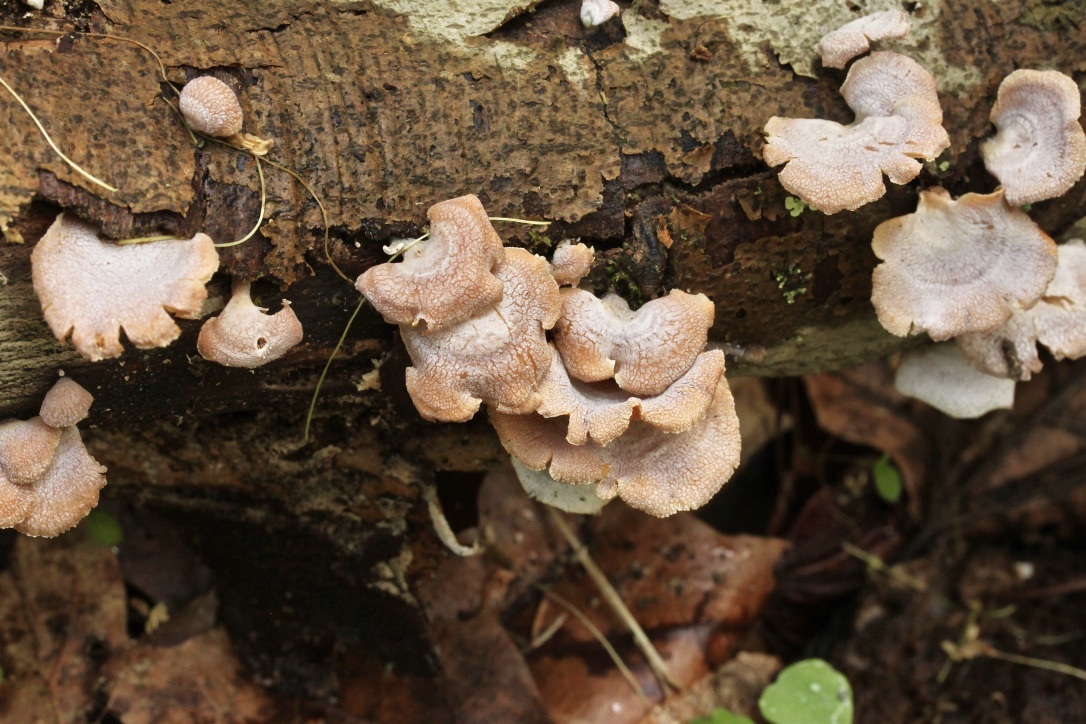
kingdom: Fungi
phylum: Basidiomycota
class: Agaricomycetes
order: Agaricales
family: Mycenaceae
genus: Panellus
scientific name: Panellus stipticus
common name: Bitter oysterling
